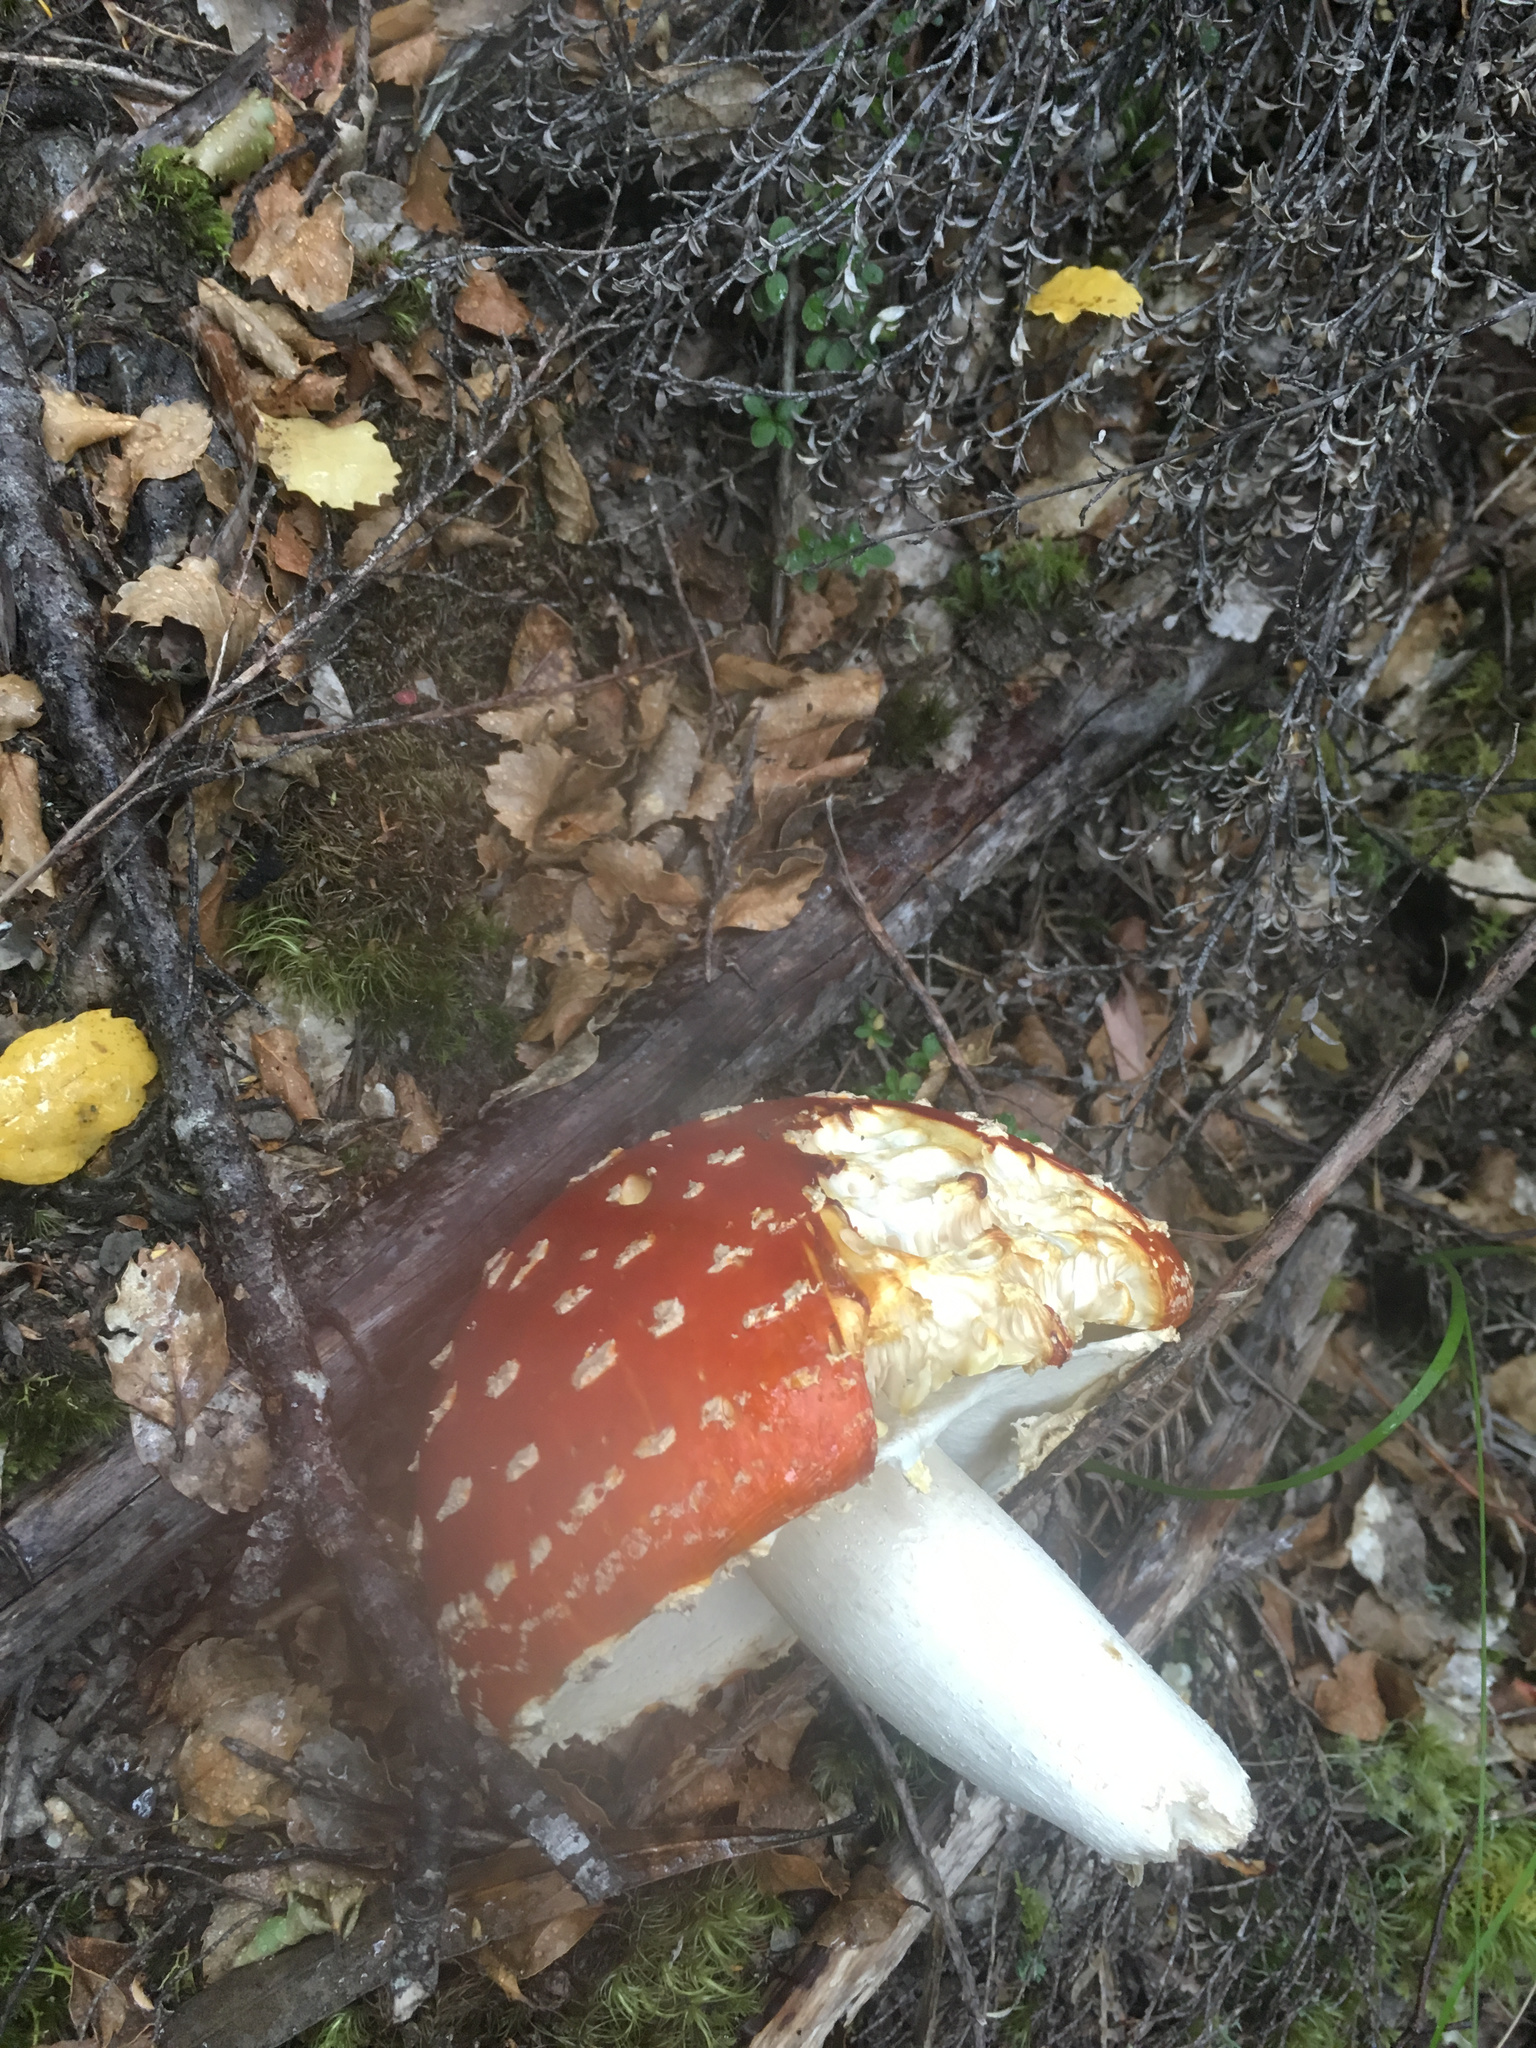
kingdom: Fungi
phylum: Basidiomycota
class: Agaricomycetes
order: Agaricales
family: Amanitaceae
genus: Amanita
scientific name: Amanita muscaria
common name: Fly agaric
